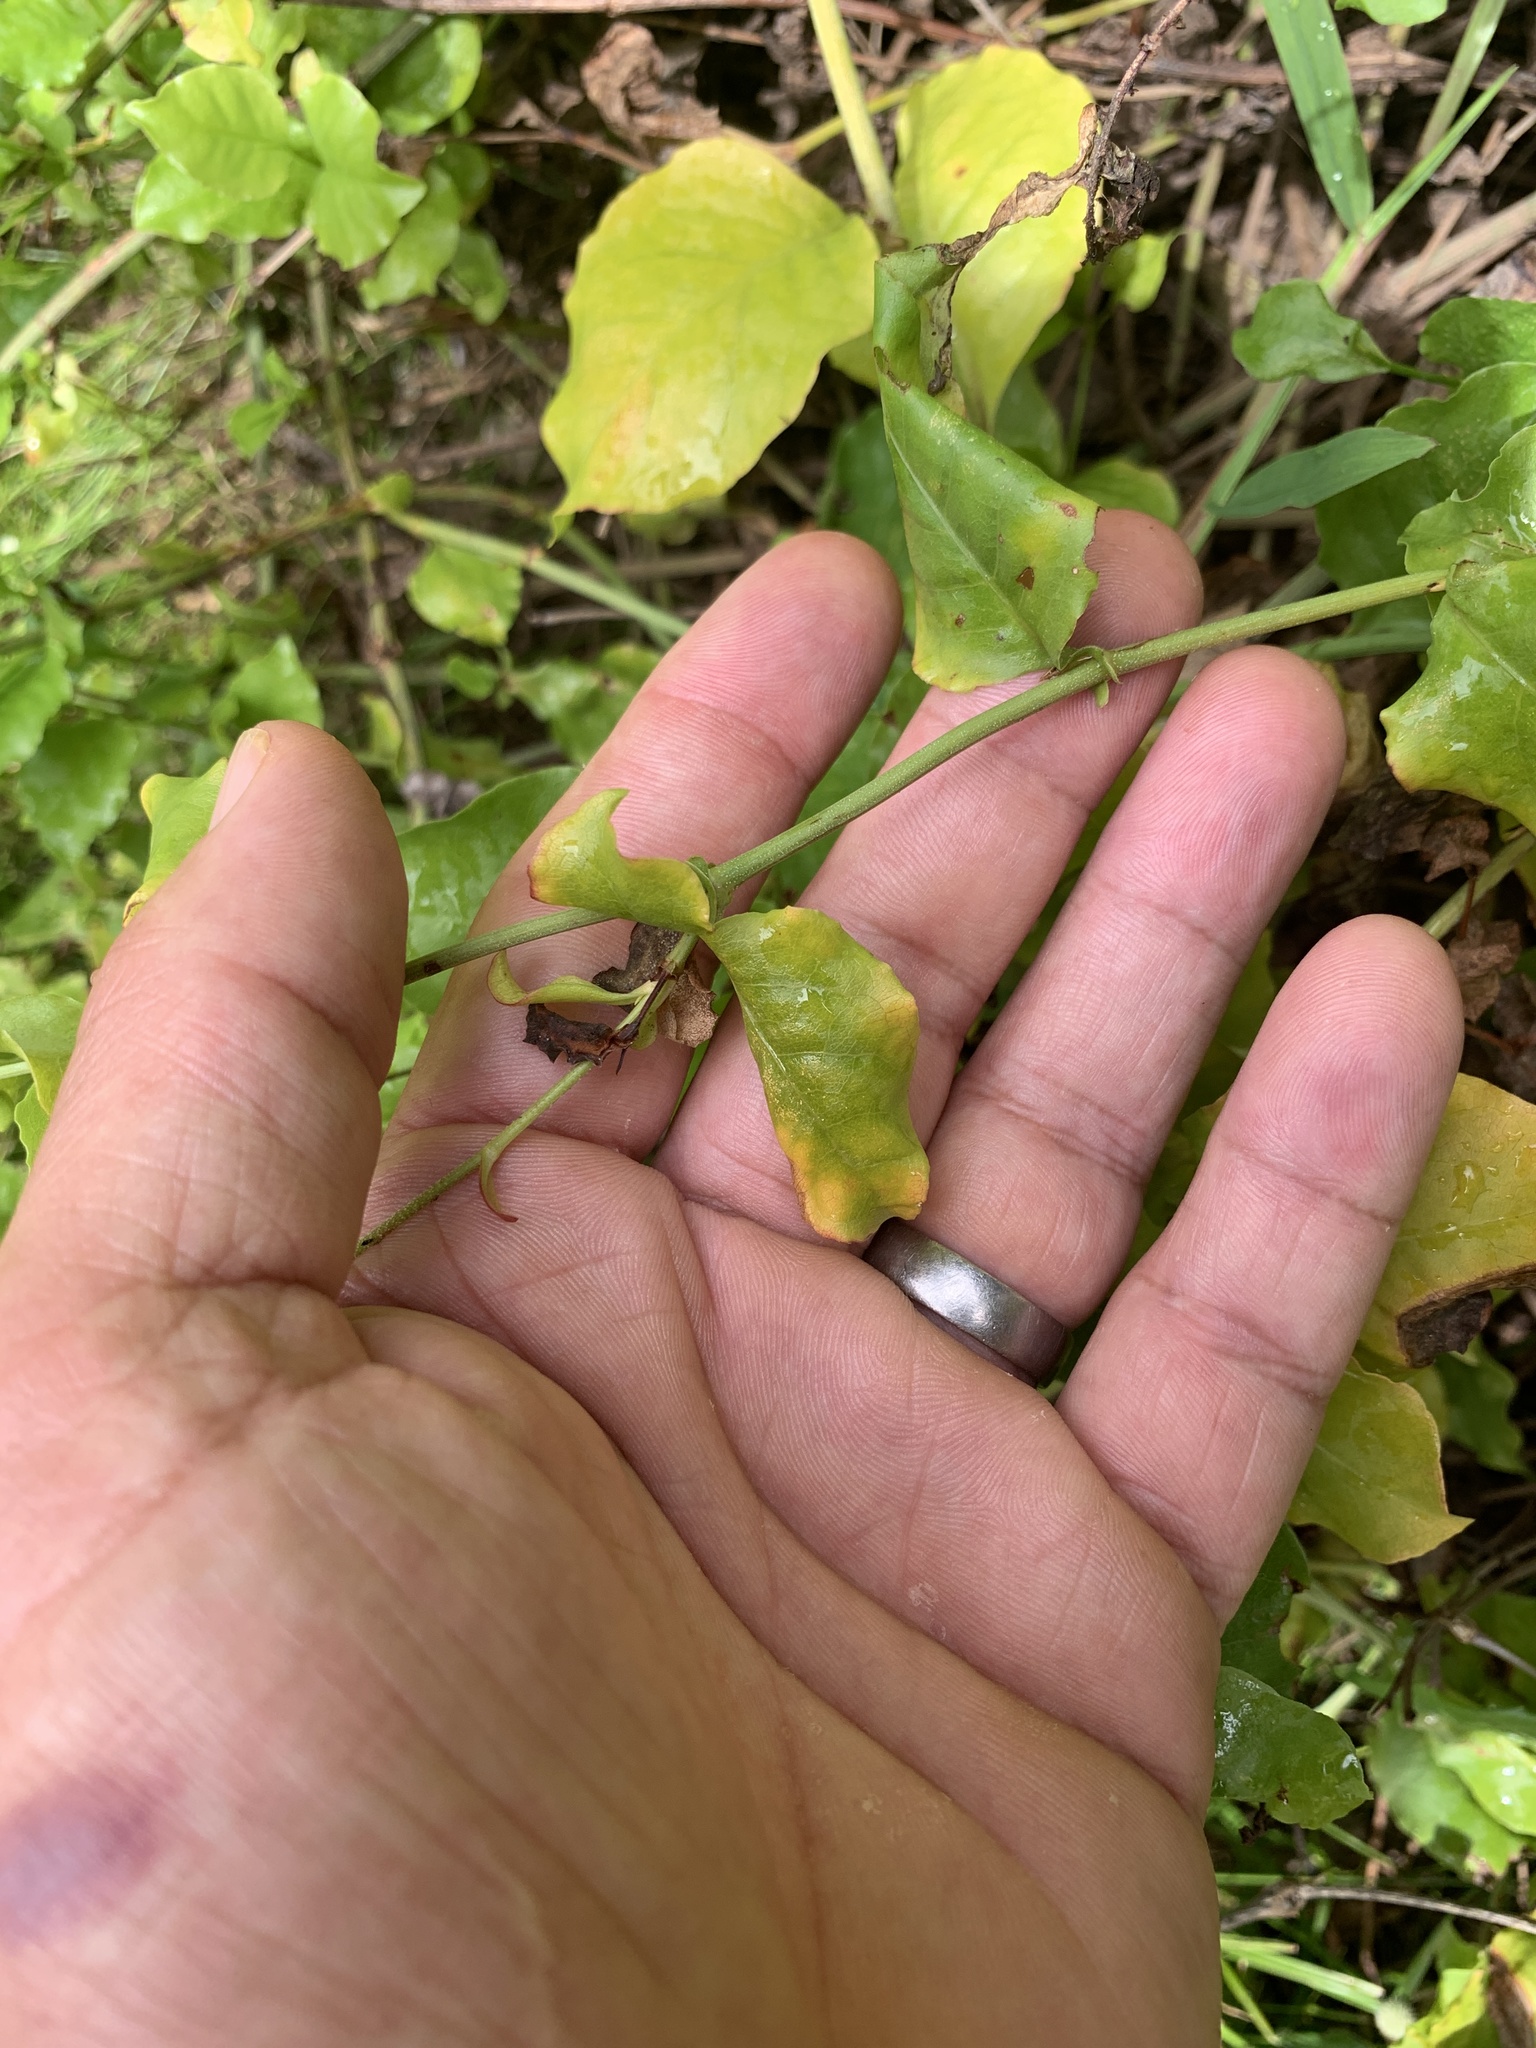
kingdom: Plantae
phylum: Tracheophyta
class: Magnoliopsida
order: Caryophyllales
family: Plumbaginaceae
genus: Plumbago
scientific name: Plumbago zeylanica
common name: Doctorbush
